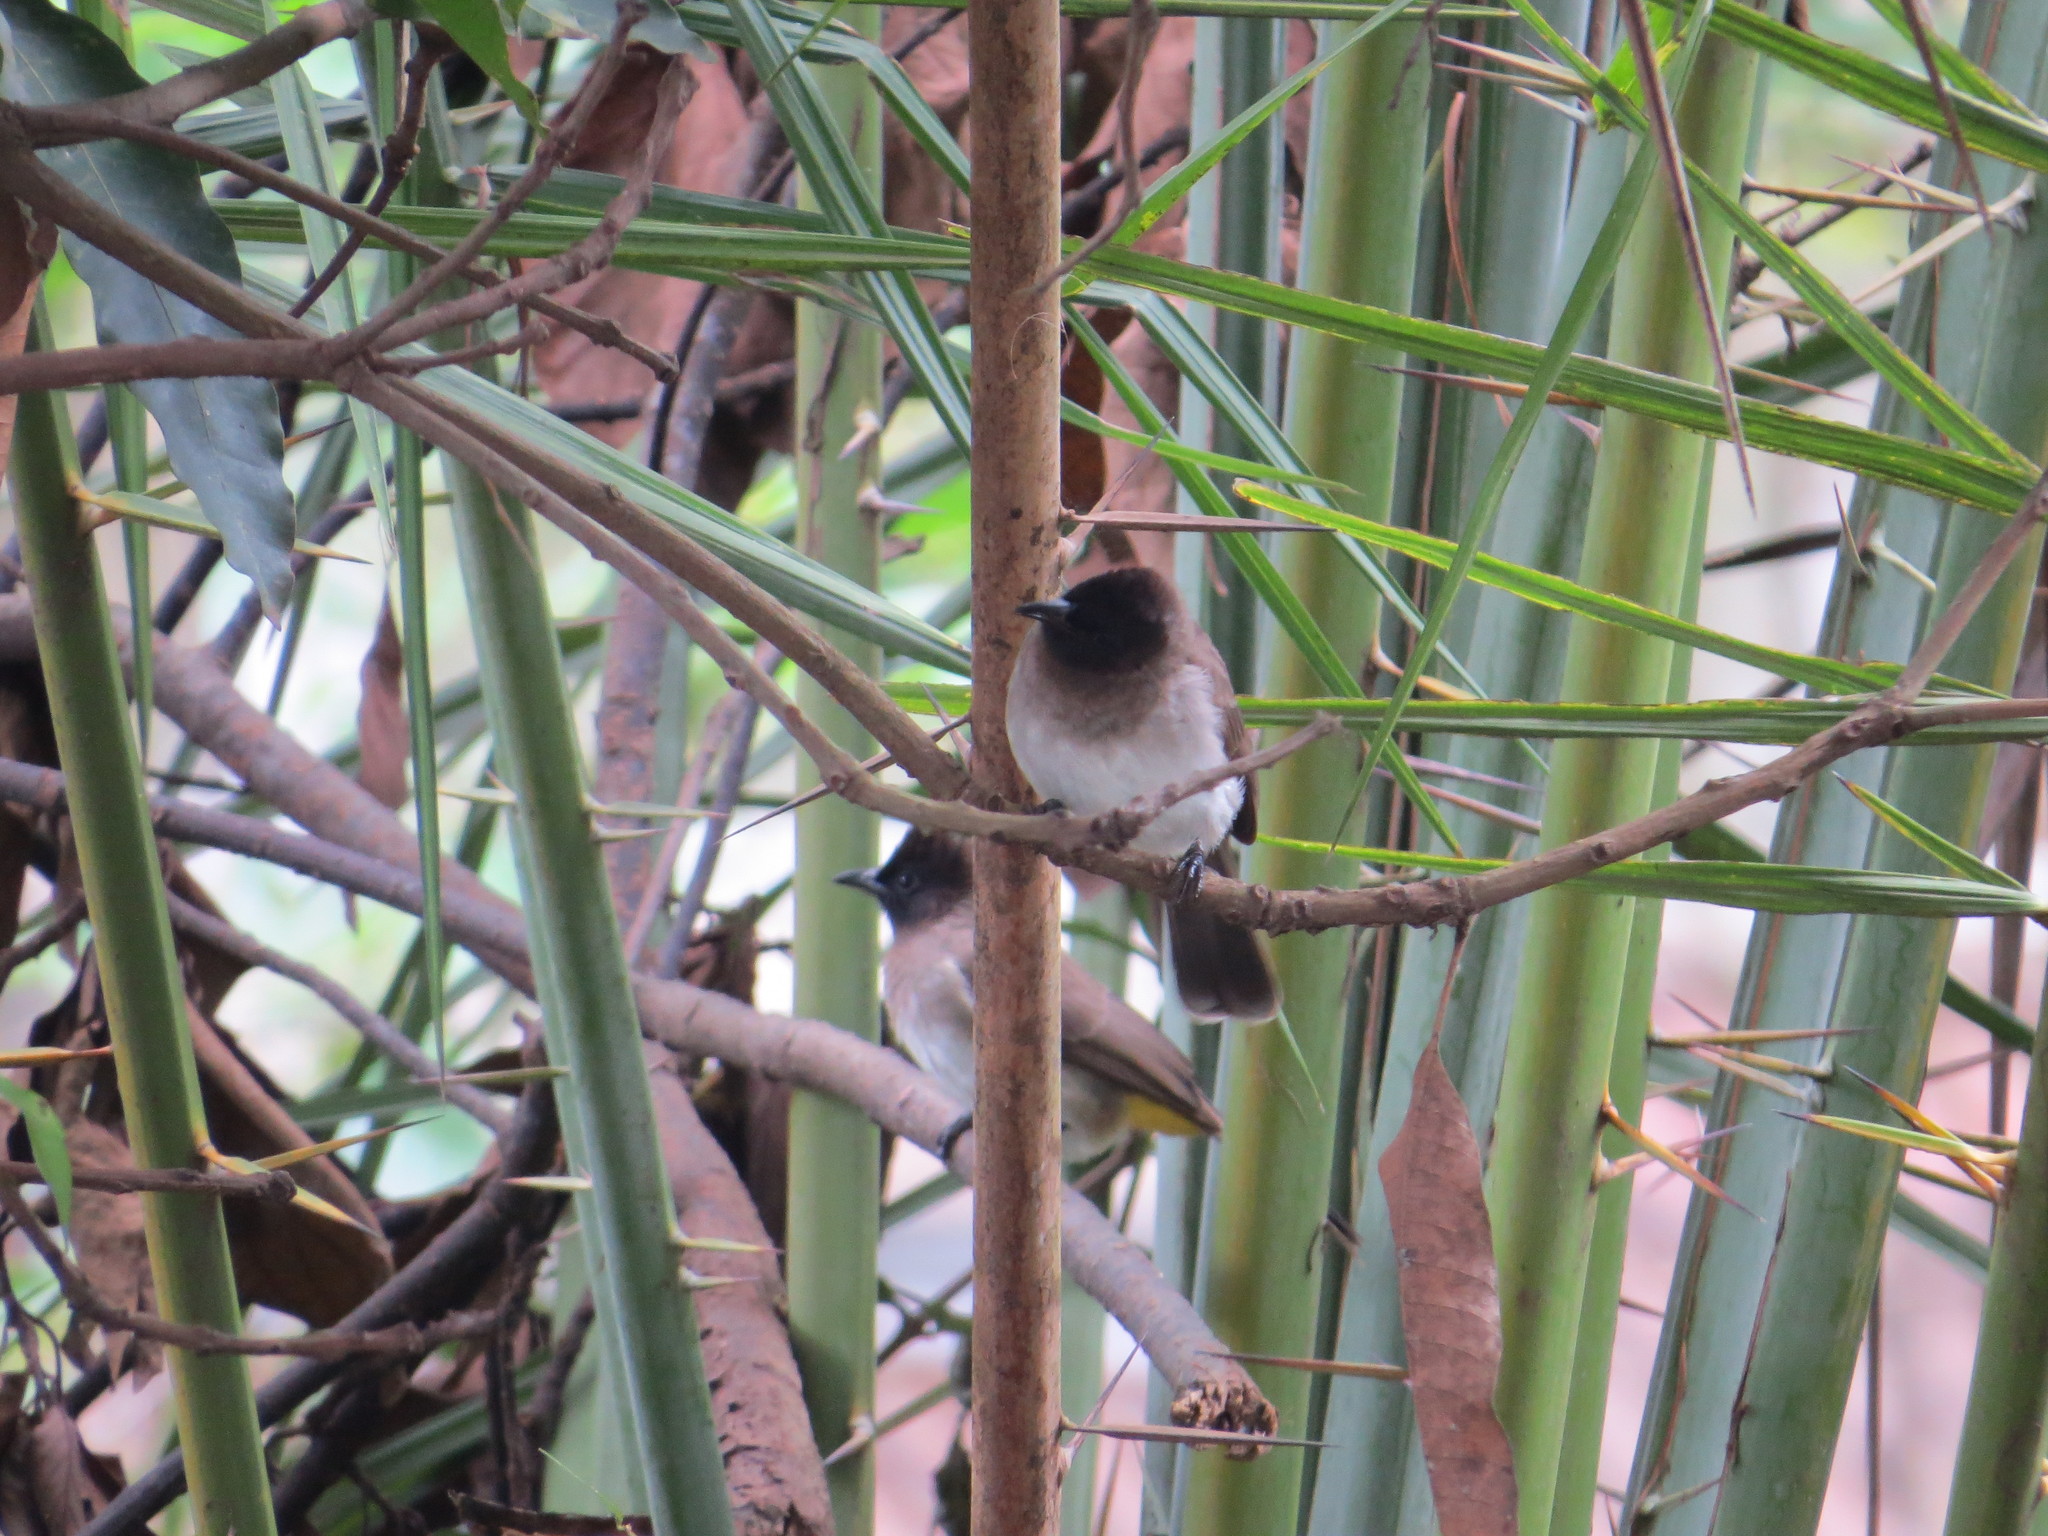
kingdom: Animalia
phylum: Chordata
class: Aves
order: Passeriformes
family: Pycnonotidae
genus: Pycnonotus
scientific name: Pycnonotus barbatus
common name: Common bulbul
